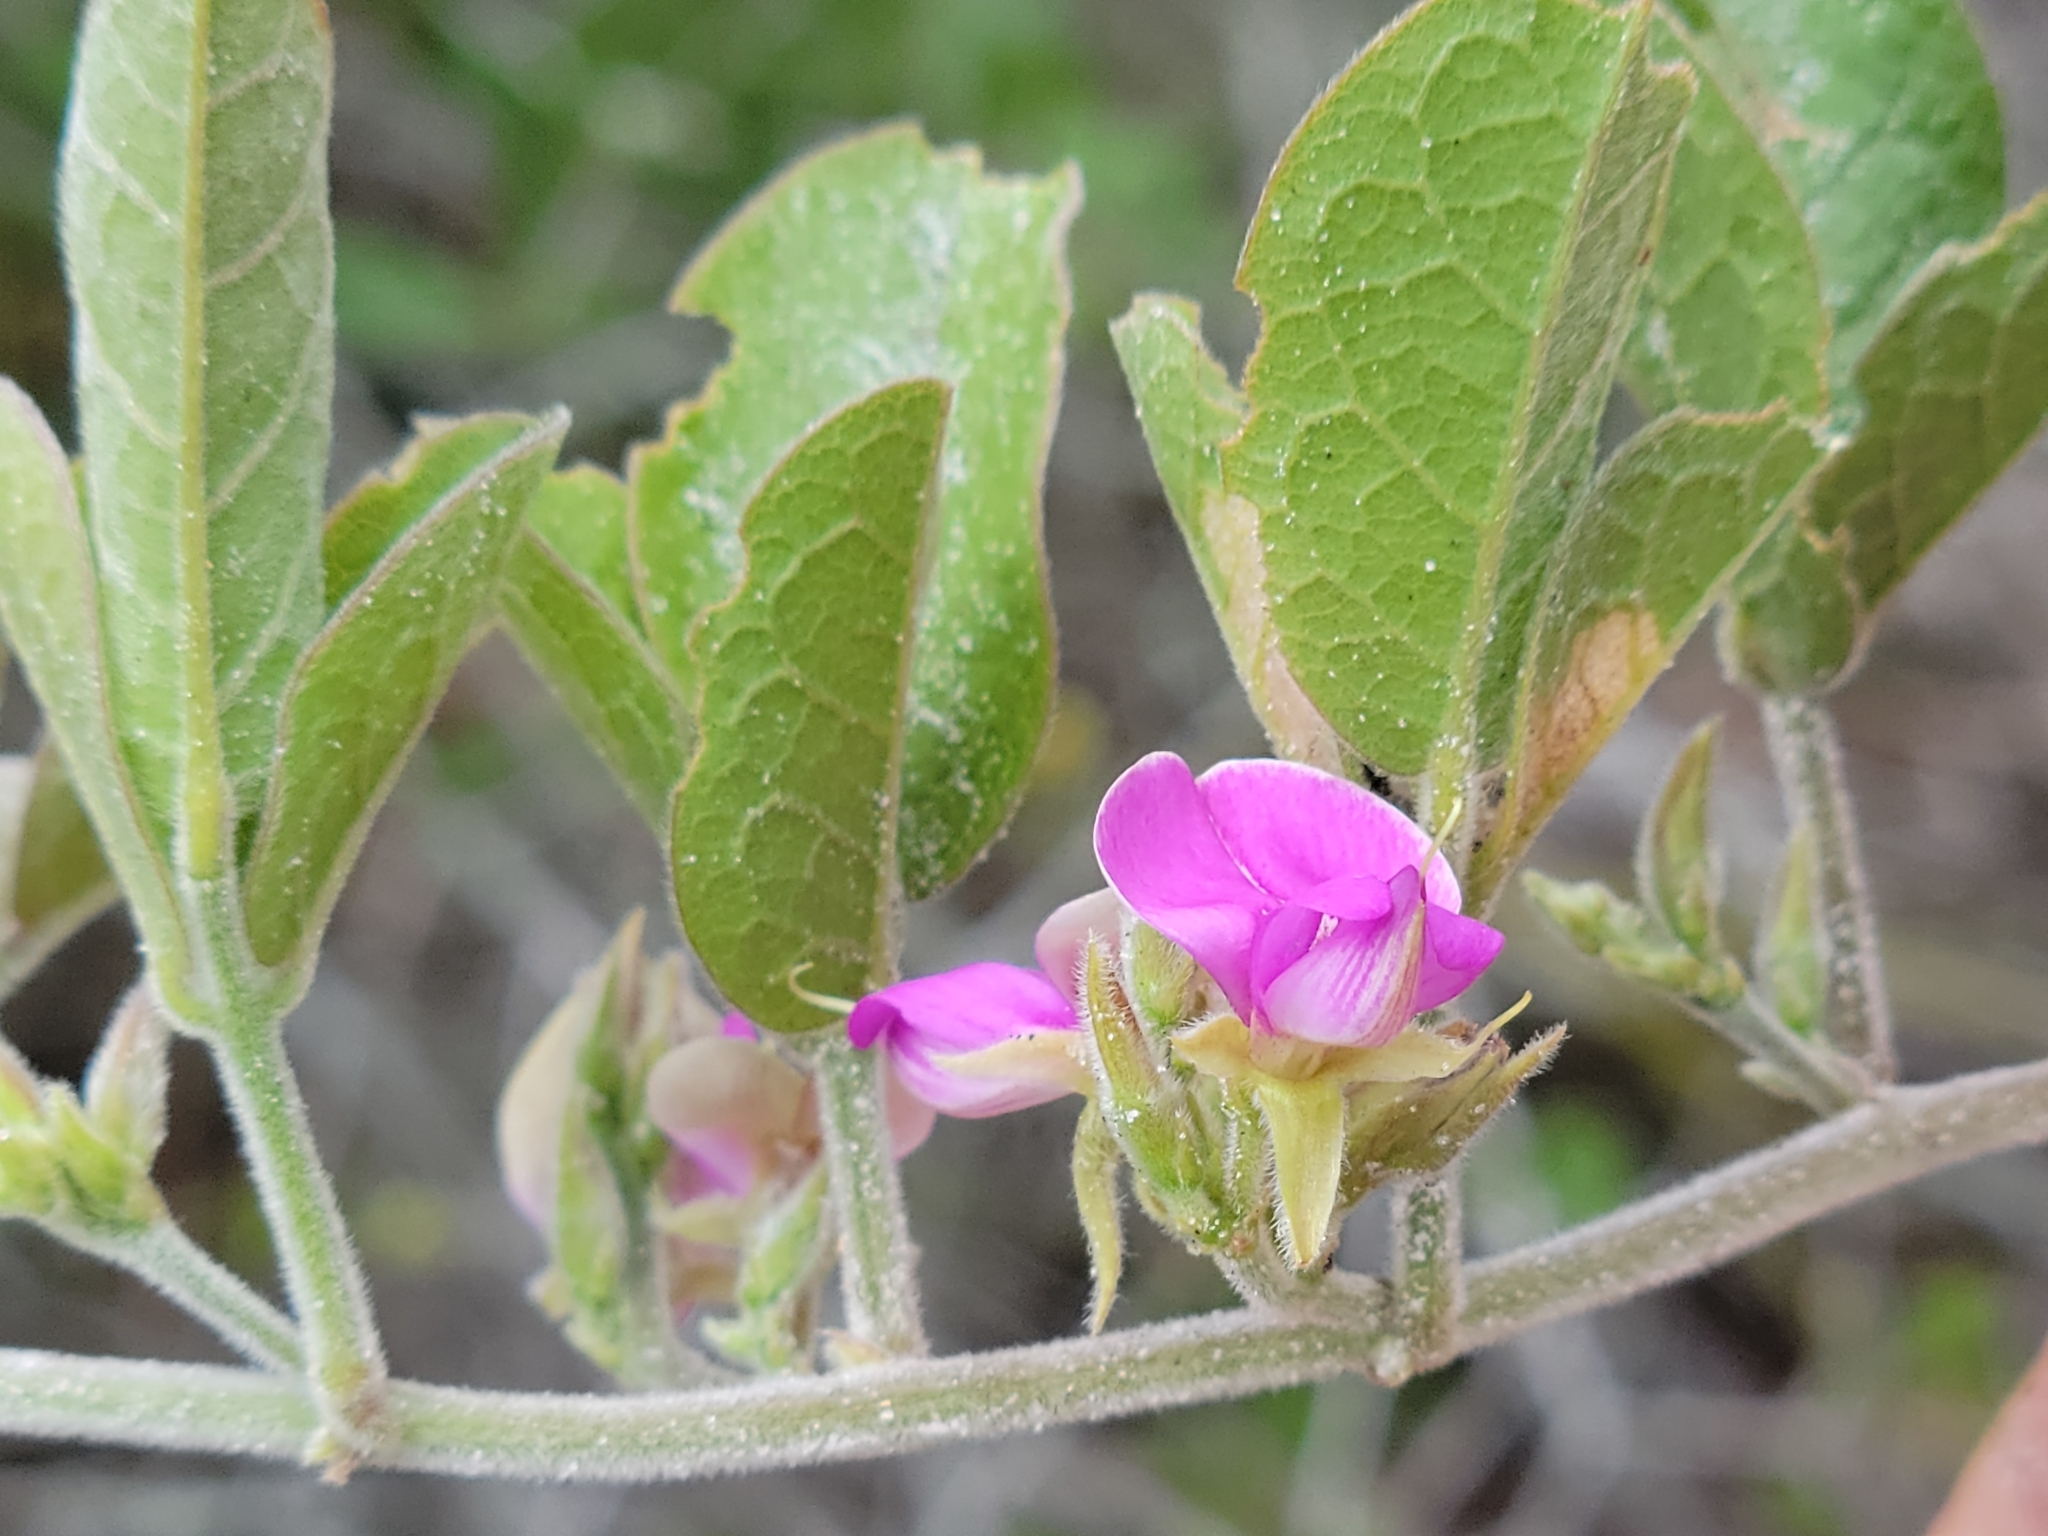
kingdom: Plantae
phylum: Tracheophyta
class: Magnoliopsida
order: Fabales
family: Fabaceae
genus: Galactia
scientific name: Galactia floridana
